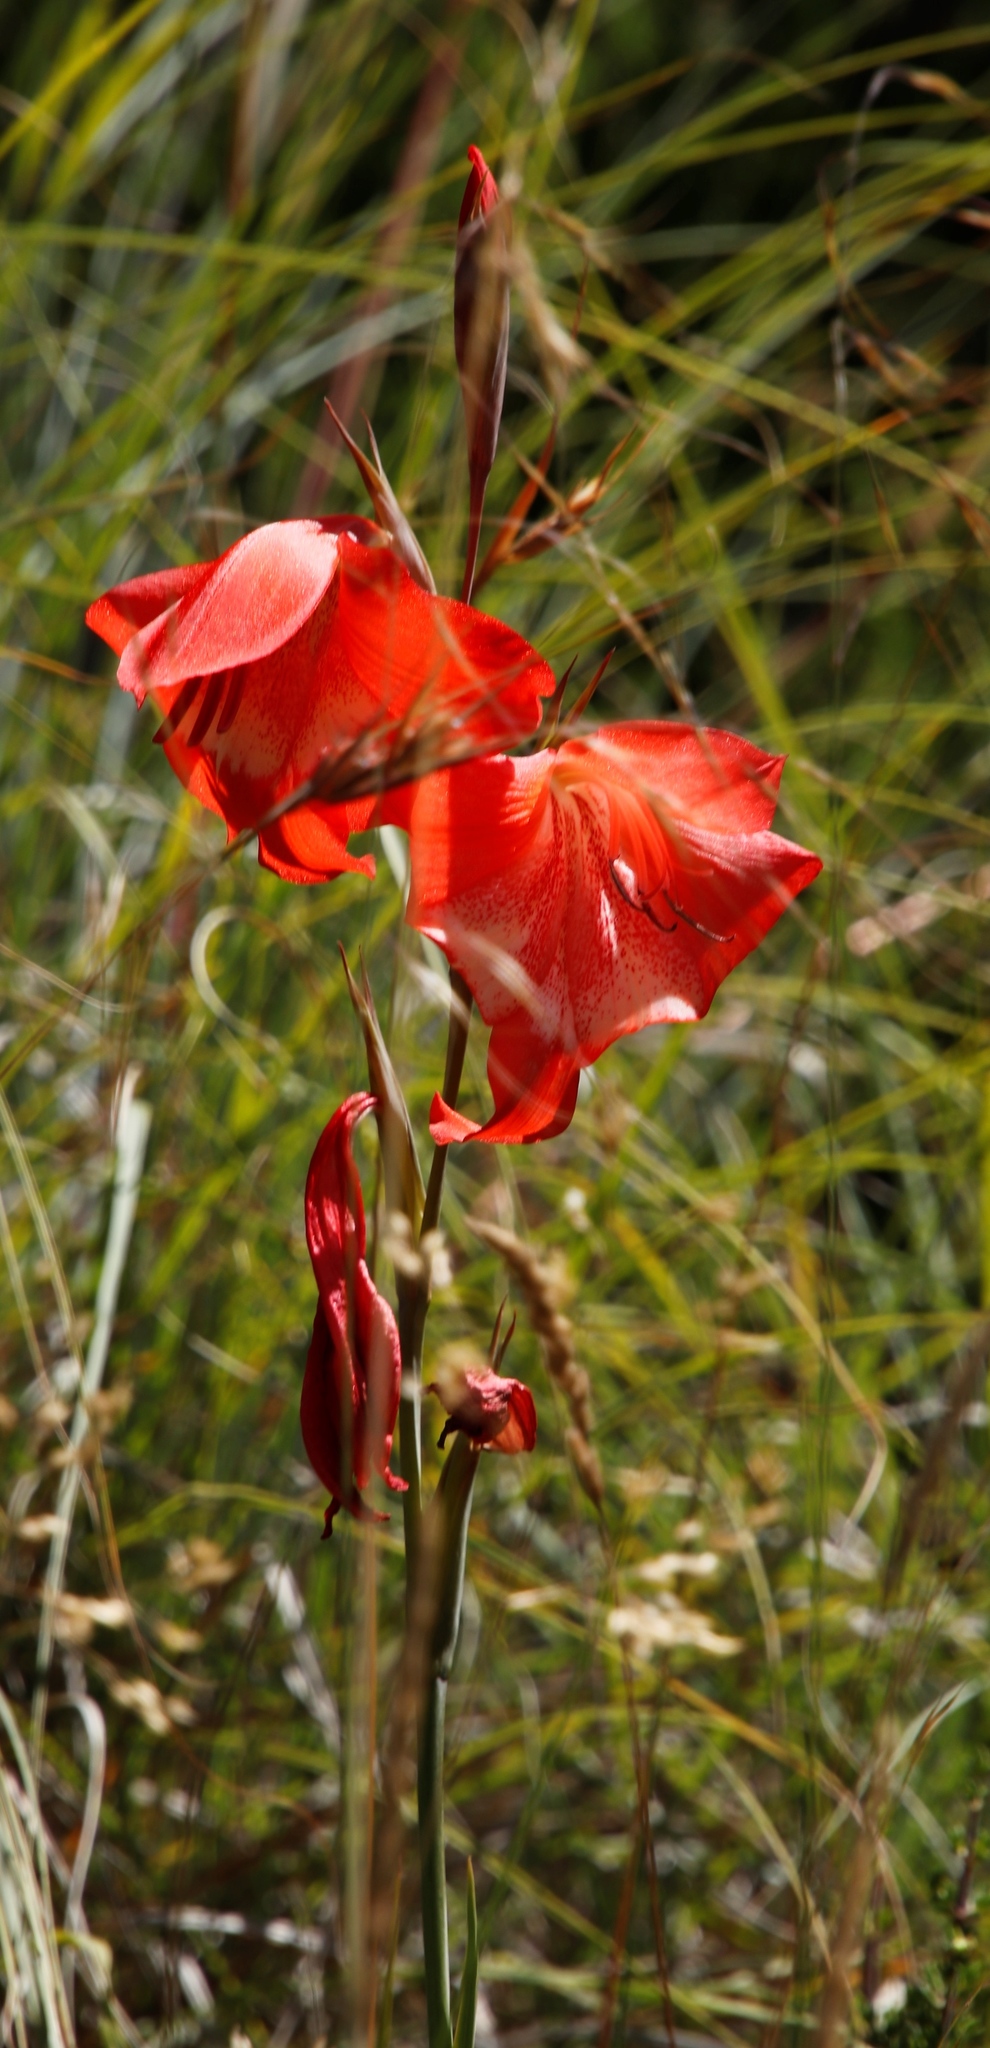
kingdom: Plantae
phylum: Tracheophyta
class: Liliopsida
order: Asparagales
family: Iridaceae
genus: Gladiolus
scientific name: Gladiolus saundersii
